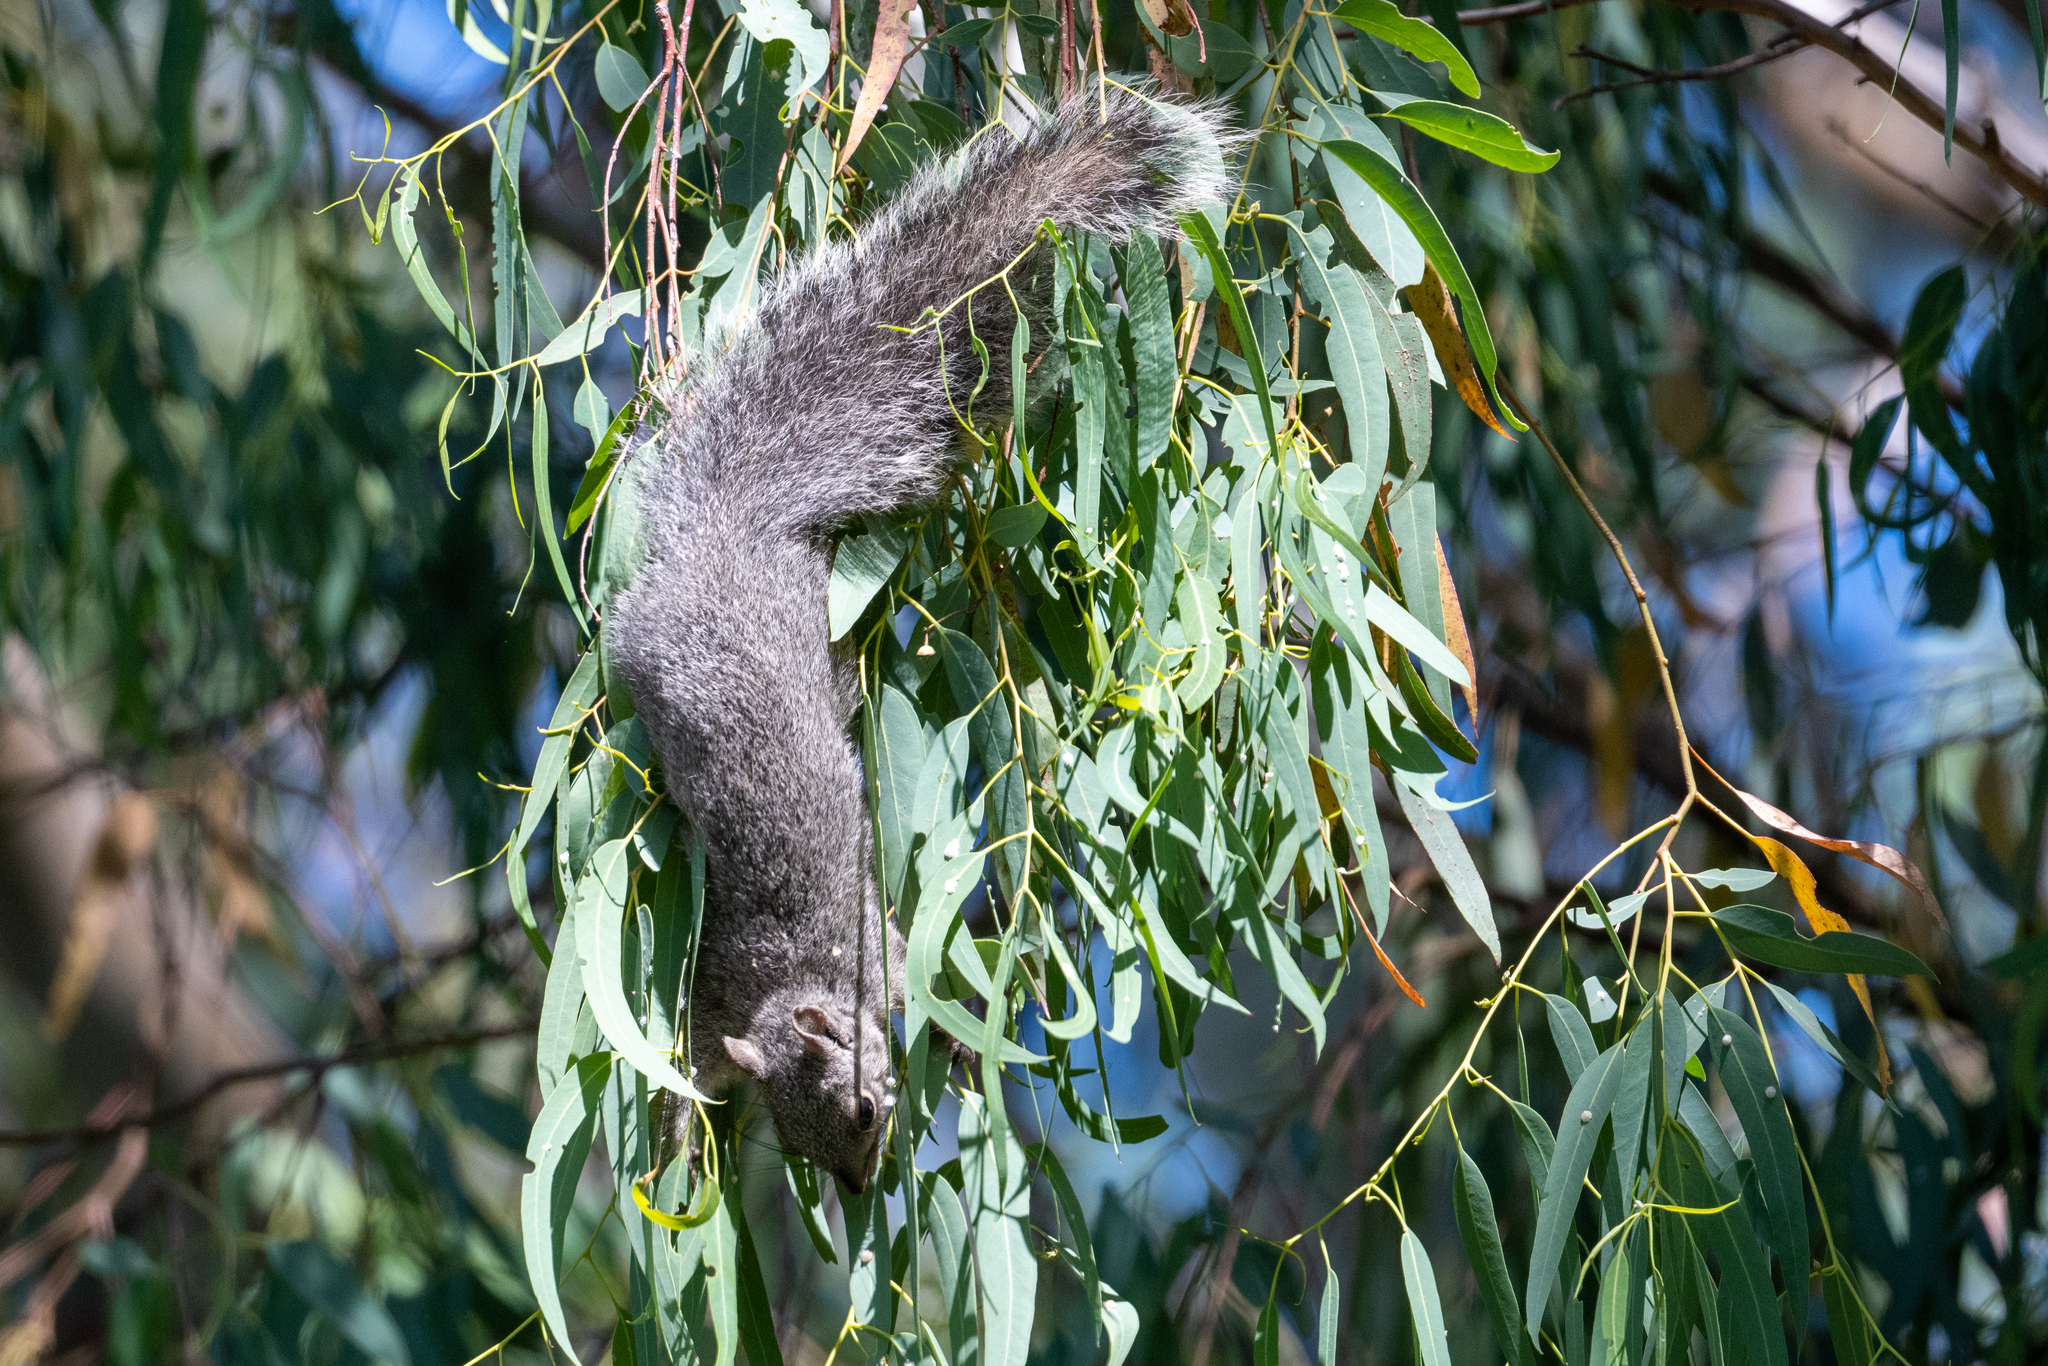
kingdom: Animalia
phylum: Chordata
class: Mammalia
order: Rodentia
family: Sciuridae
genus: Sciurus
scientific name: Sciurus griseus
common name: Western gray squirrel
